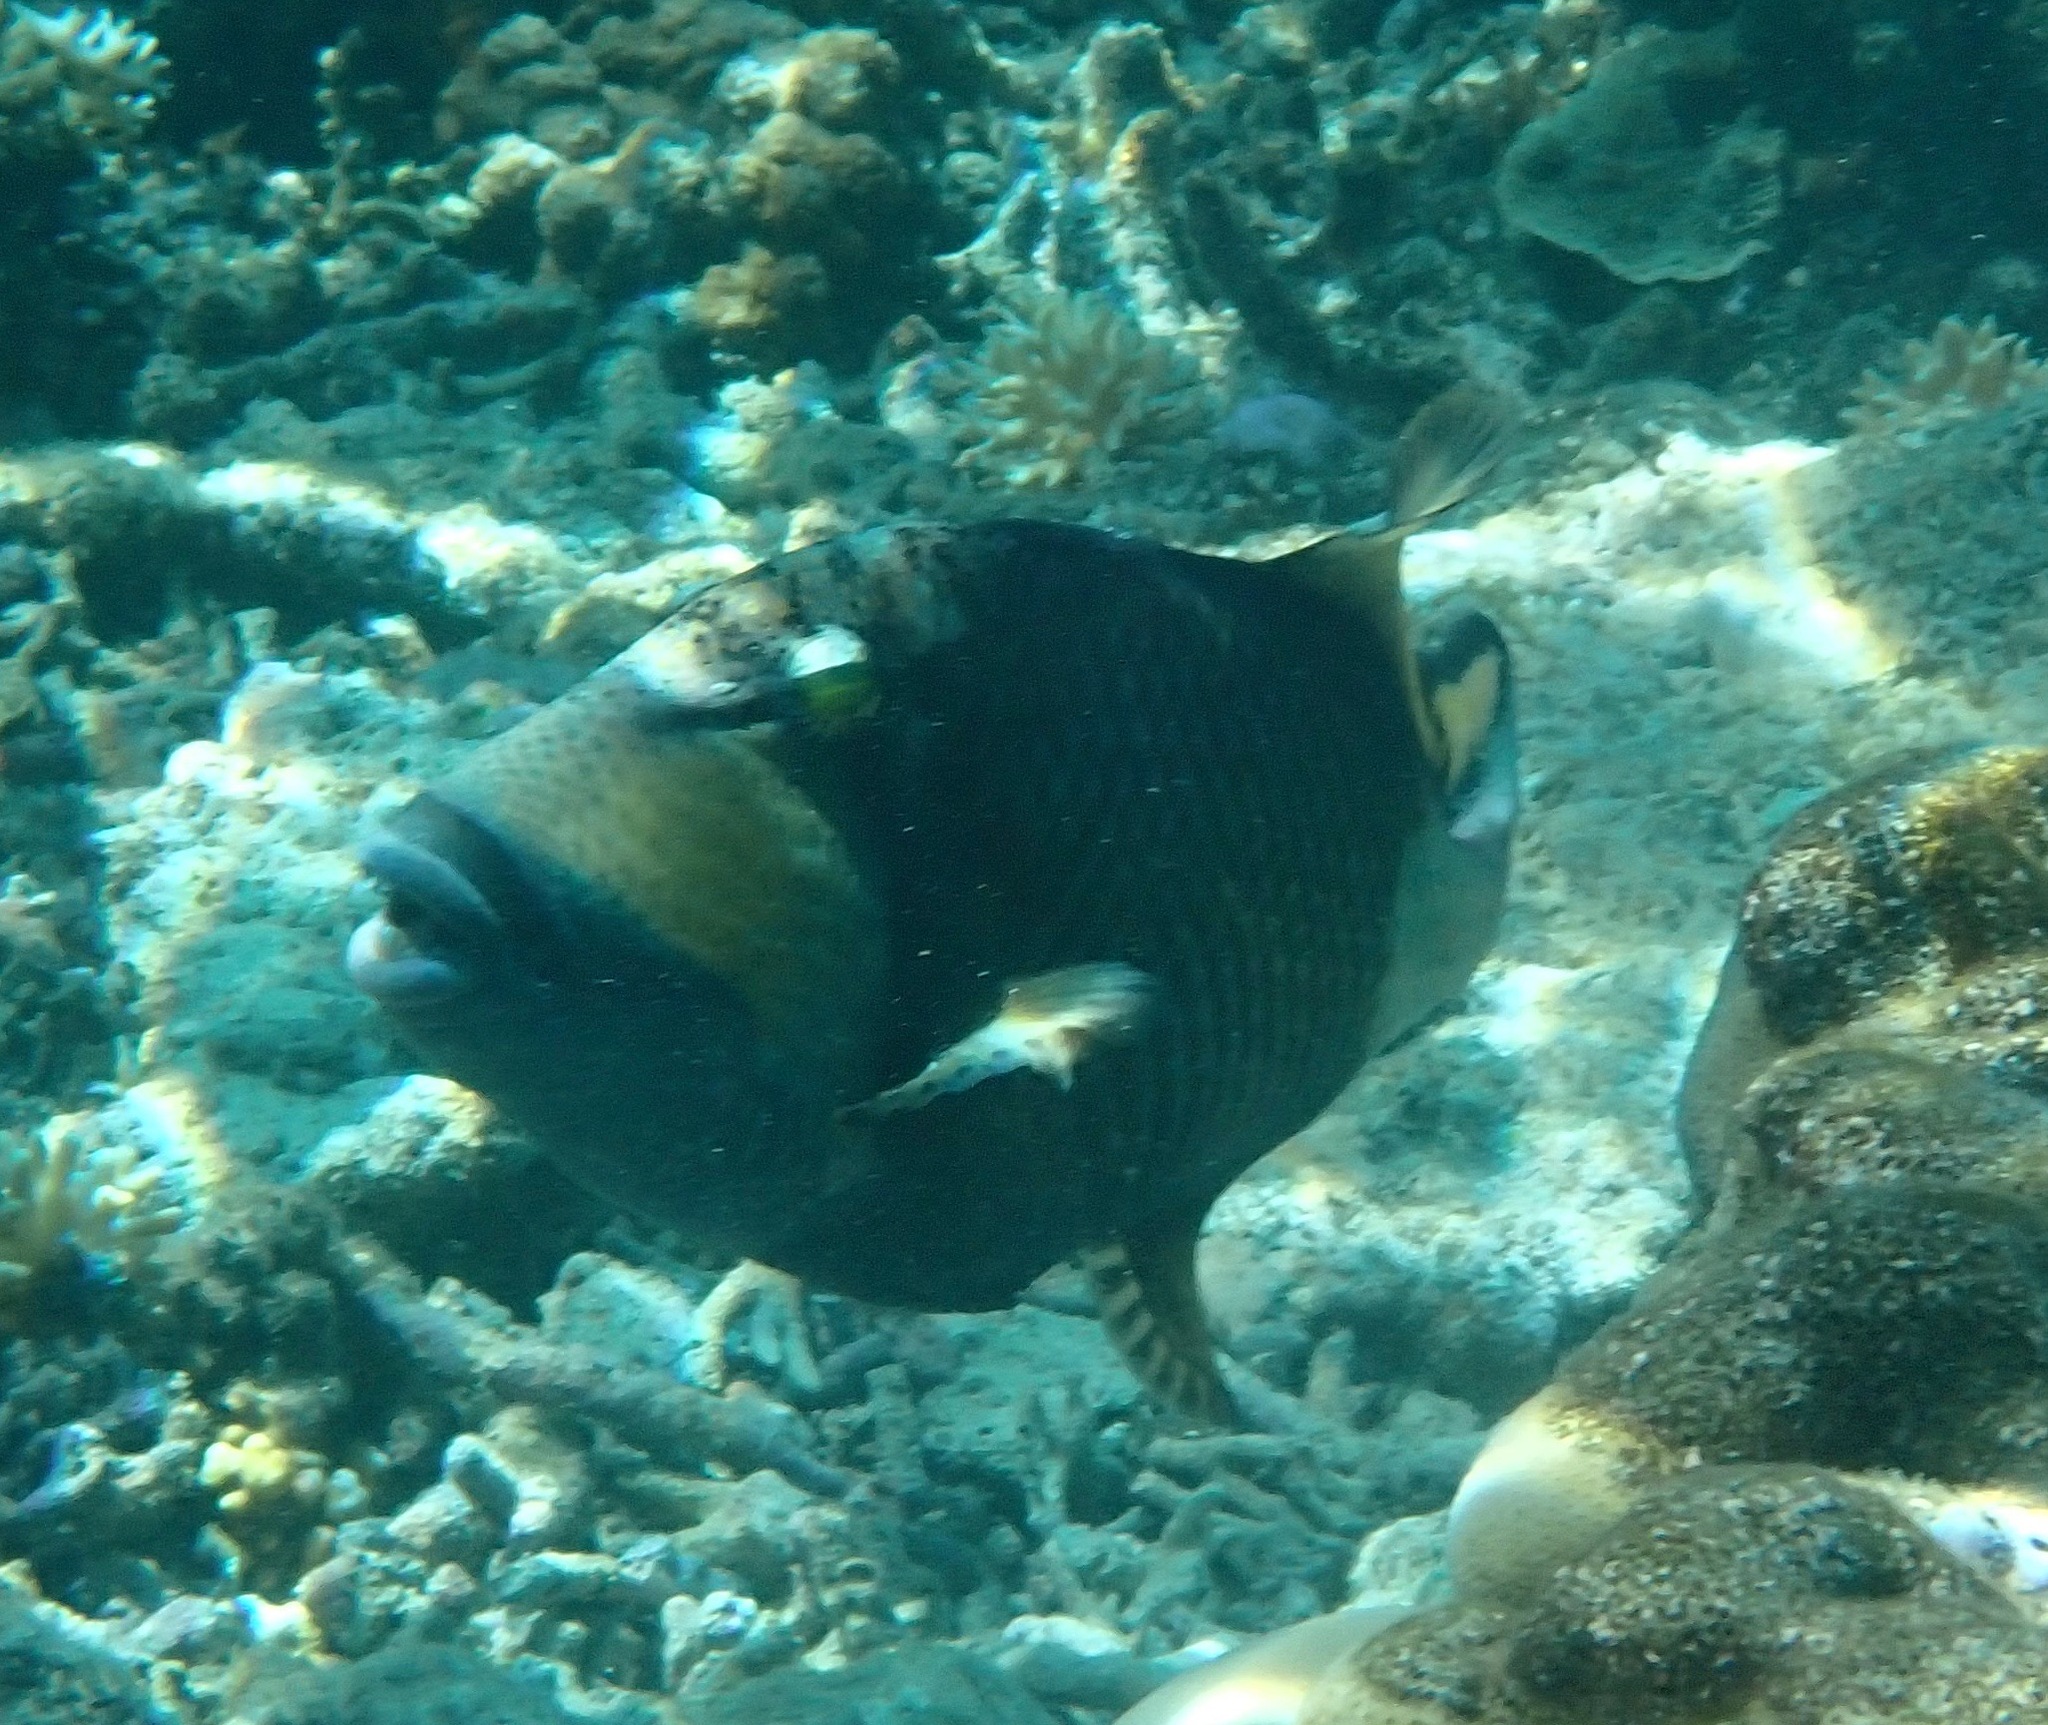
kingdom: Animalia
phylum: Chordata
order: Tetraodontiformes
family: Balistidae
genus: Balistoides
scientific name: Balistoides viridescens
